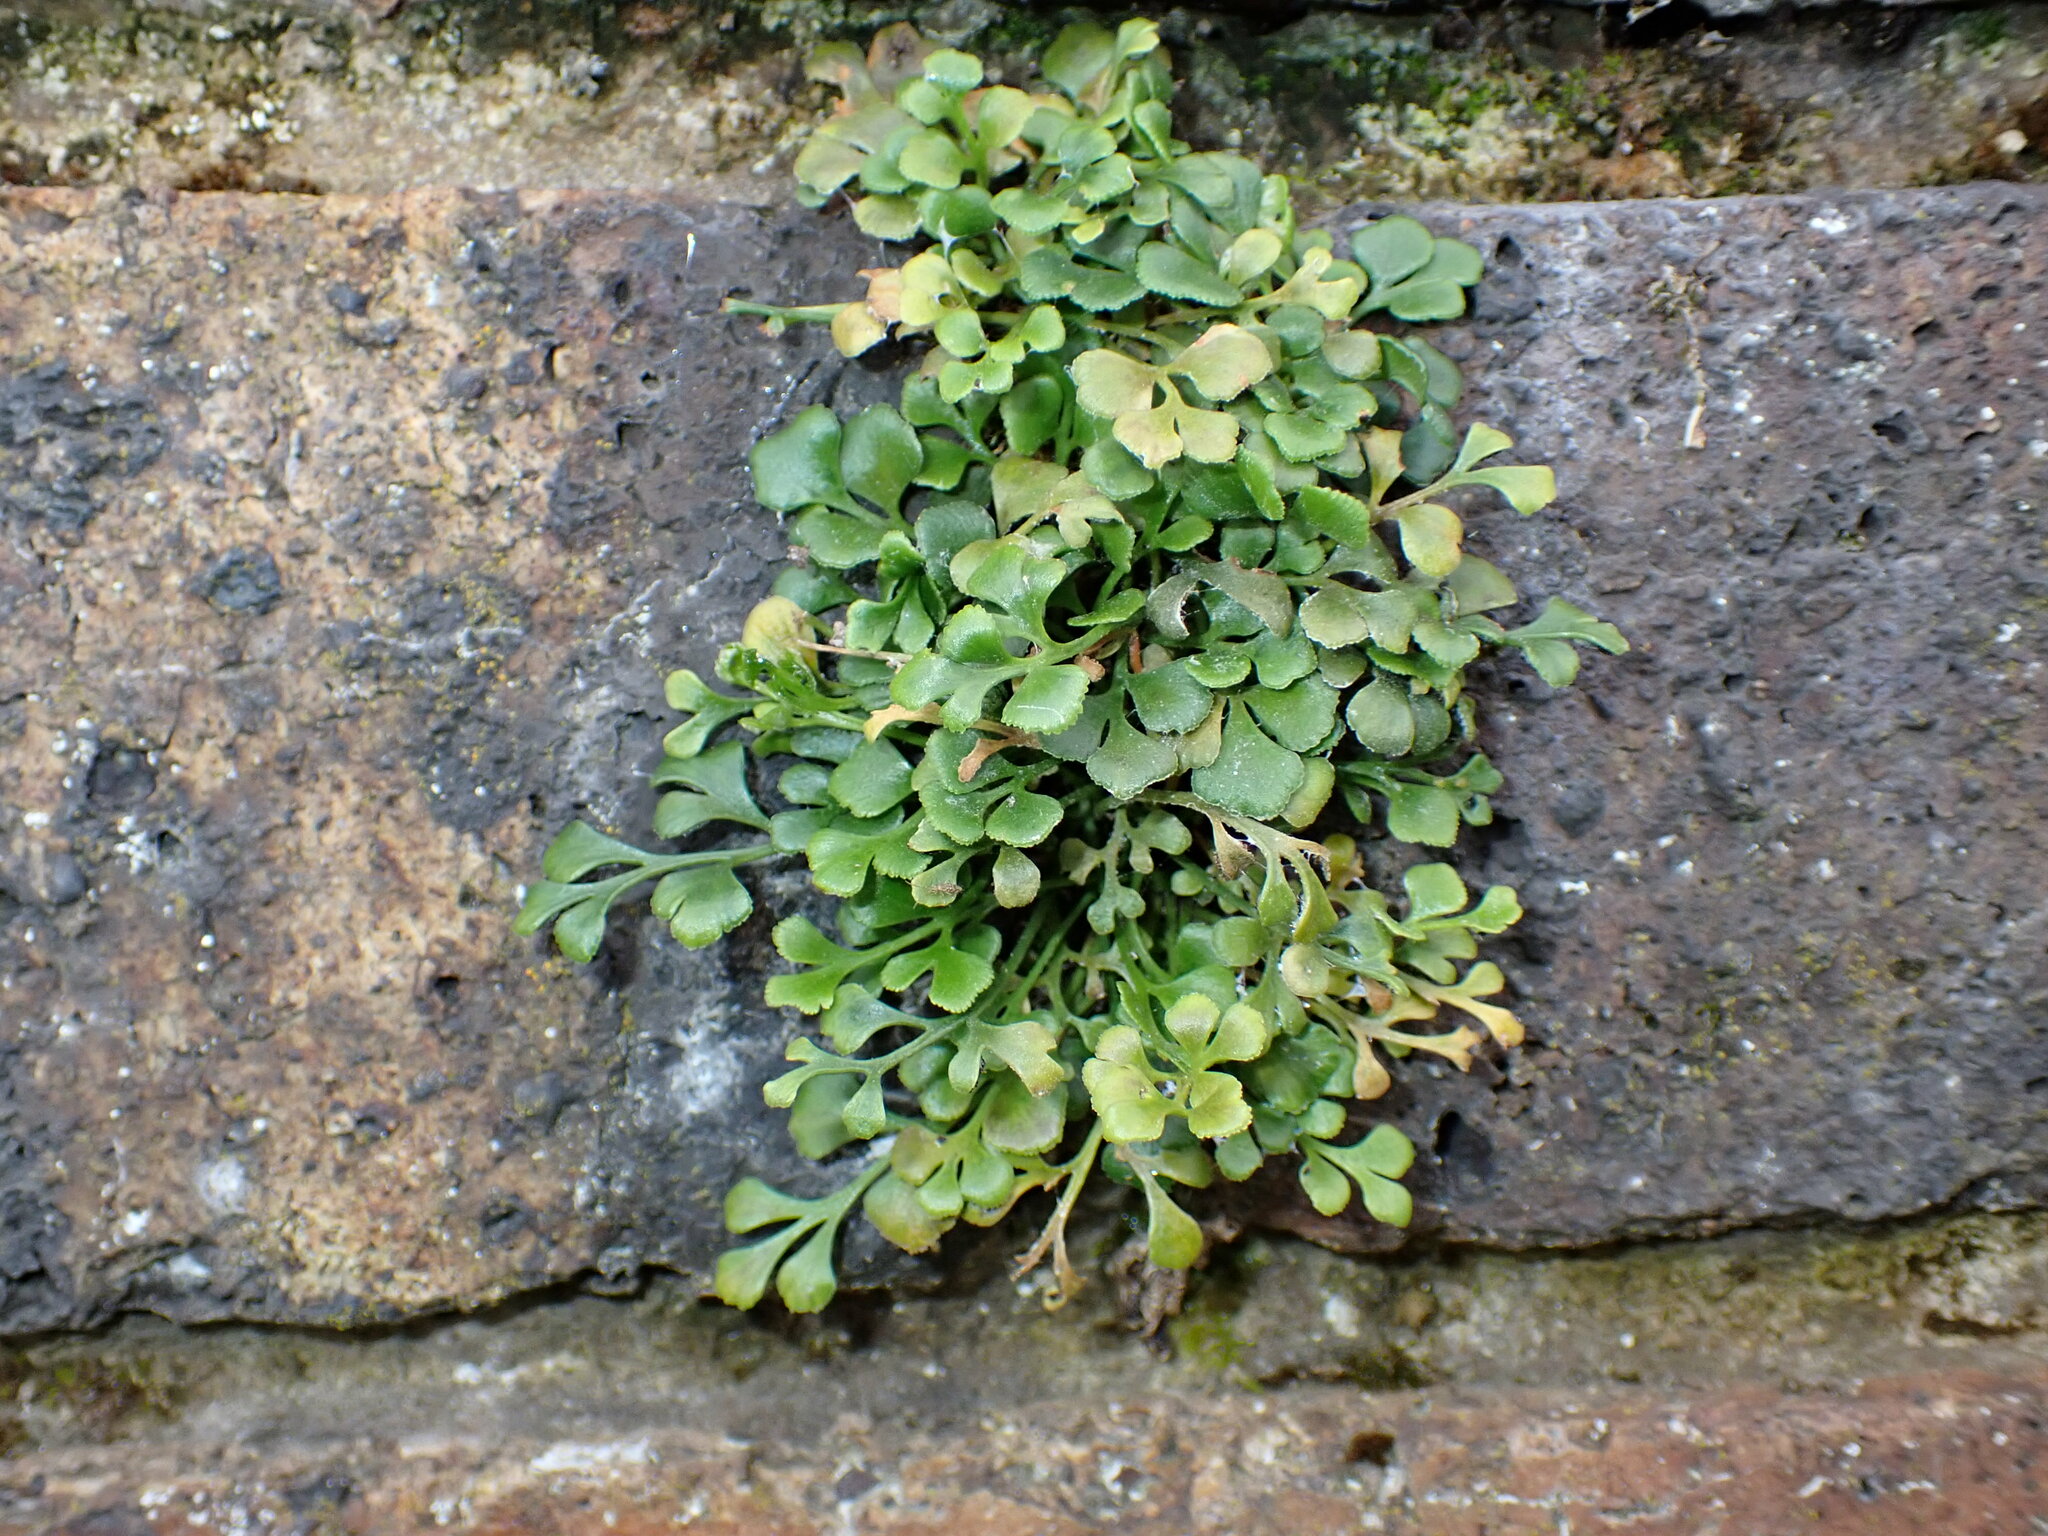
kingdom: Plantae
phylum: Tracheophyta
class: Polypodiopsida
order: Polypodiales
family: Aspleniaceae
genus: Asplenium
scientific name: Asplenium ruta-muraria
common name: Wall-rue
